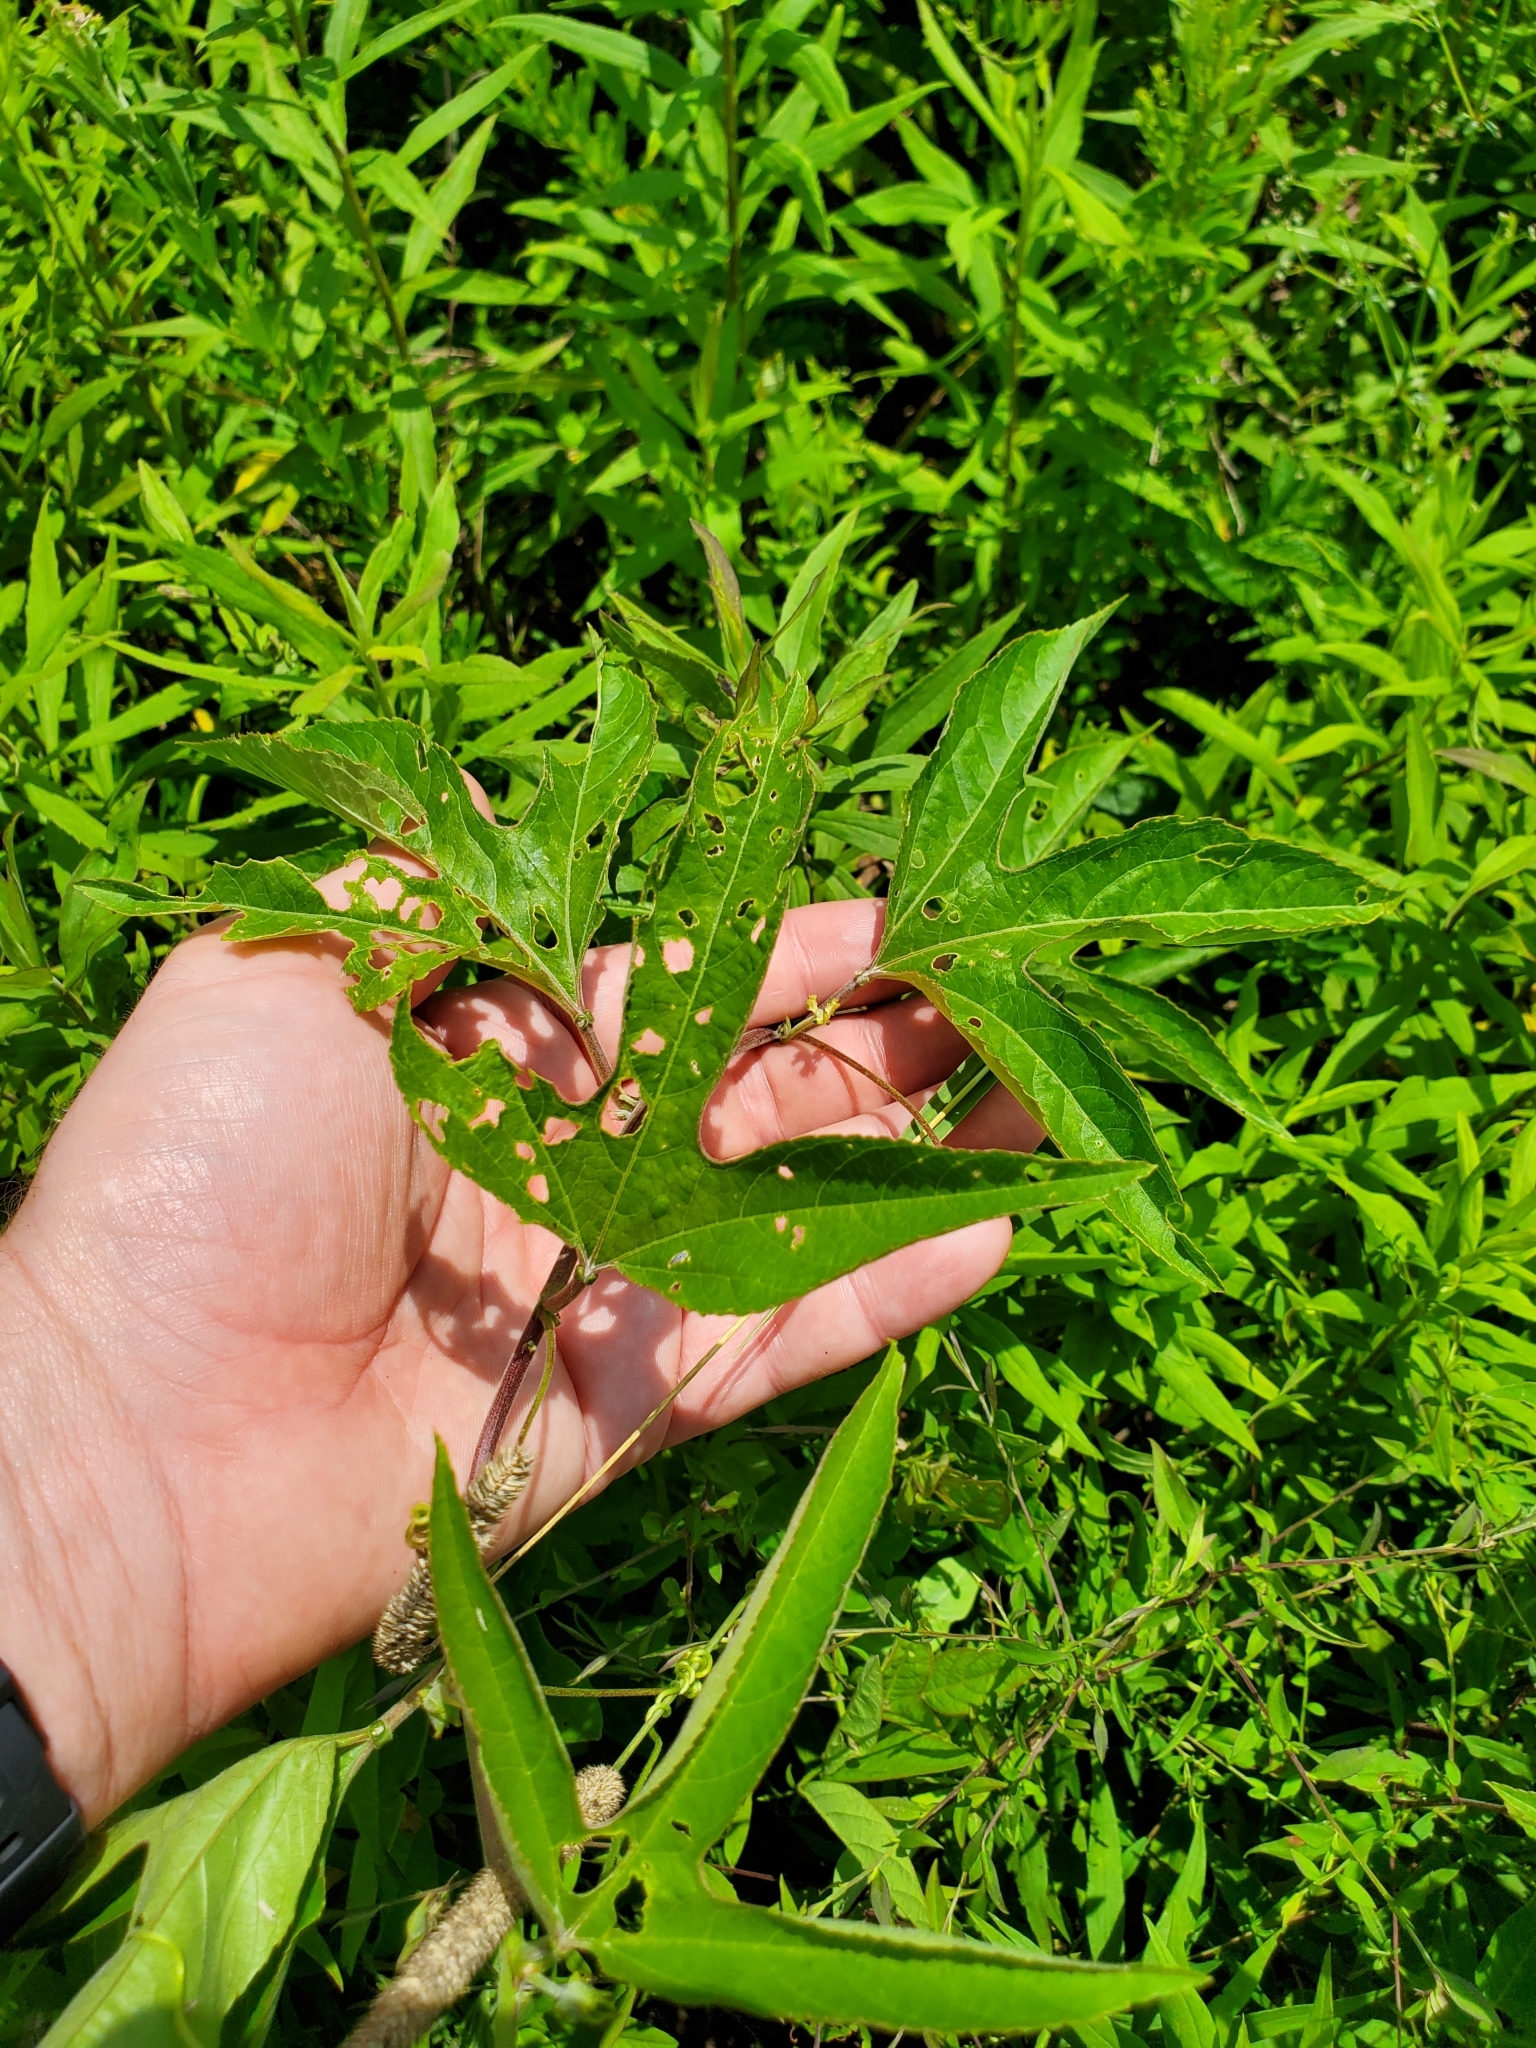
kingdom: Plantae
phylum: Tracheophyta
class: Magnoliopsida
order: Malpighiales
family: Passifloraceae
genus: Passiflora
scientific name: Passiflora incarnata
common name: Apricot-vine
